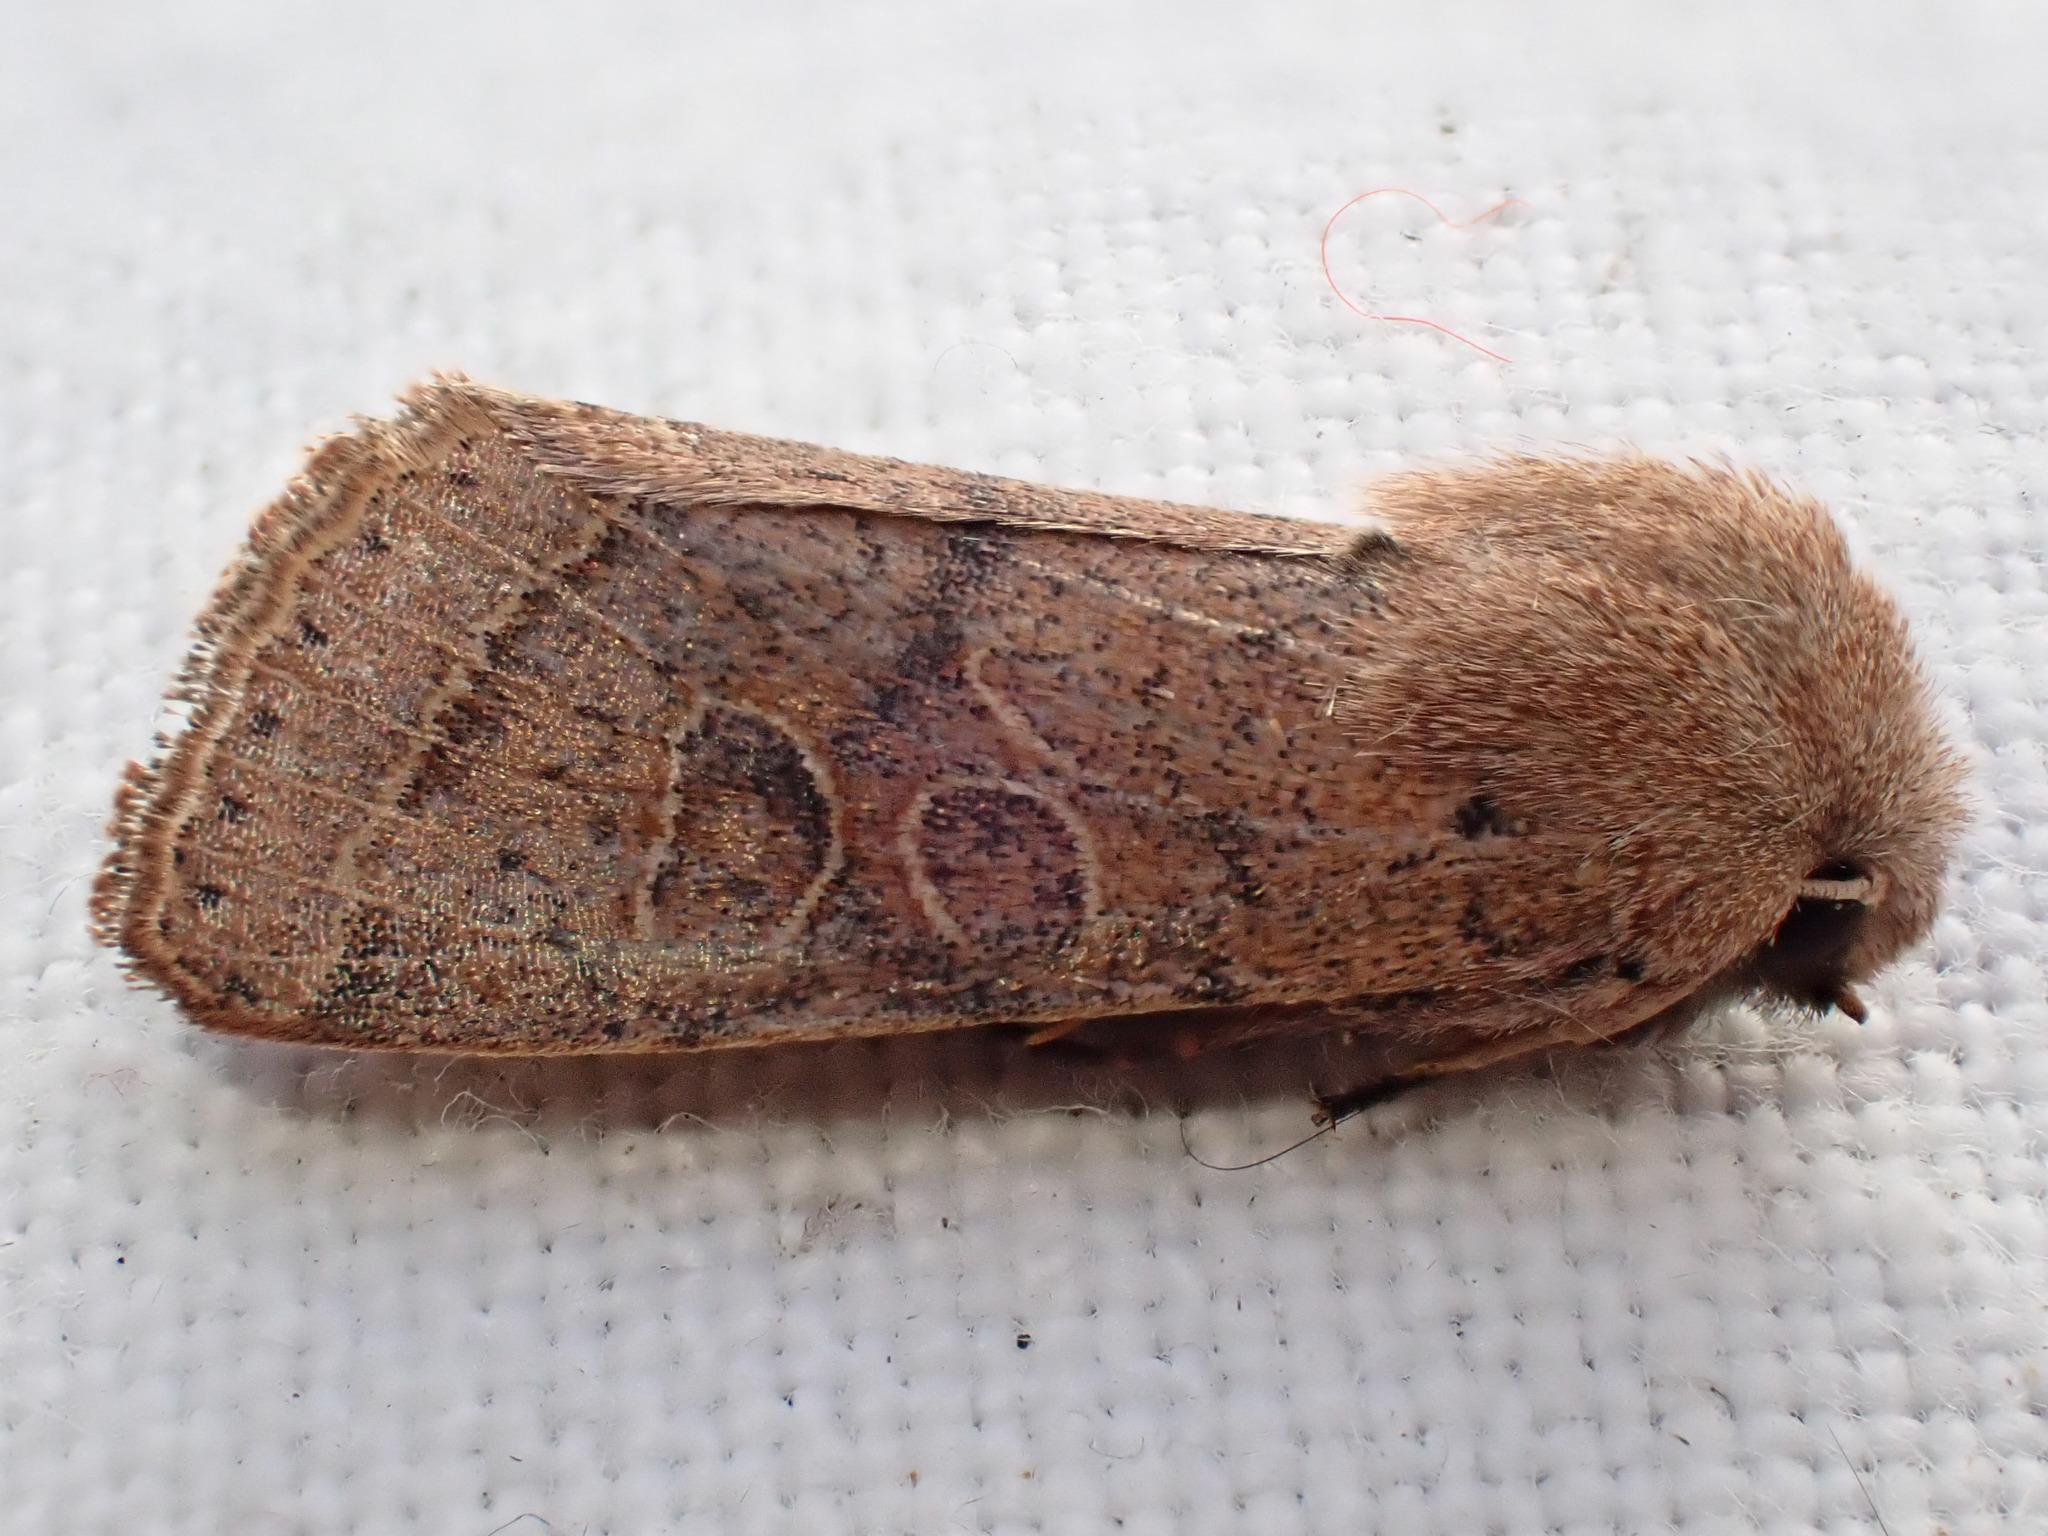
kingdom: Animalia
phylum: Arthropoda
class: Insecta
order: Lepidoptera
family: Noctuidae
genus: Orthosia
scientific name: Orthosia cerasi
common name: Common quaker
